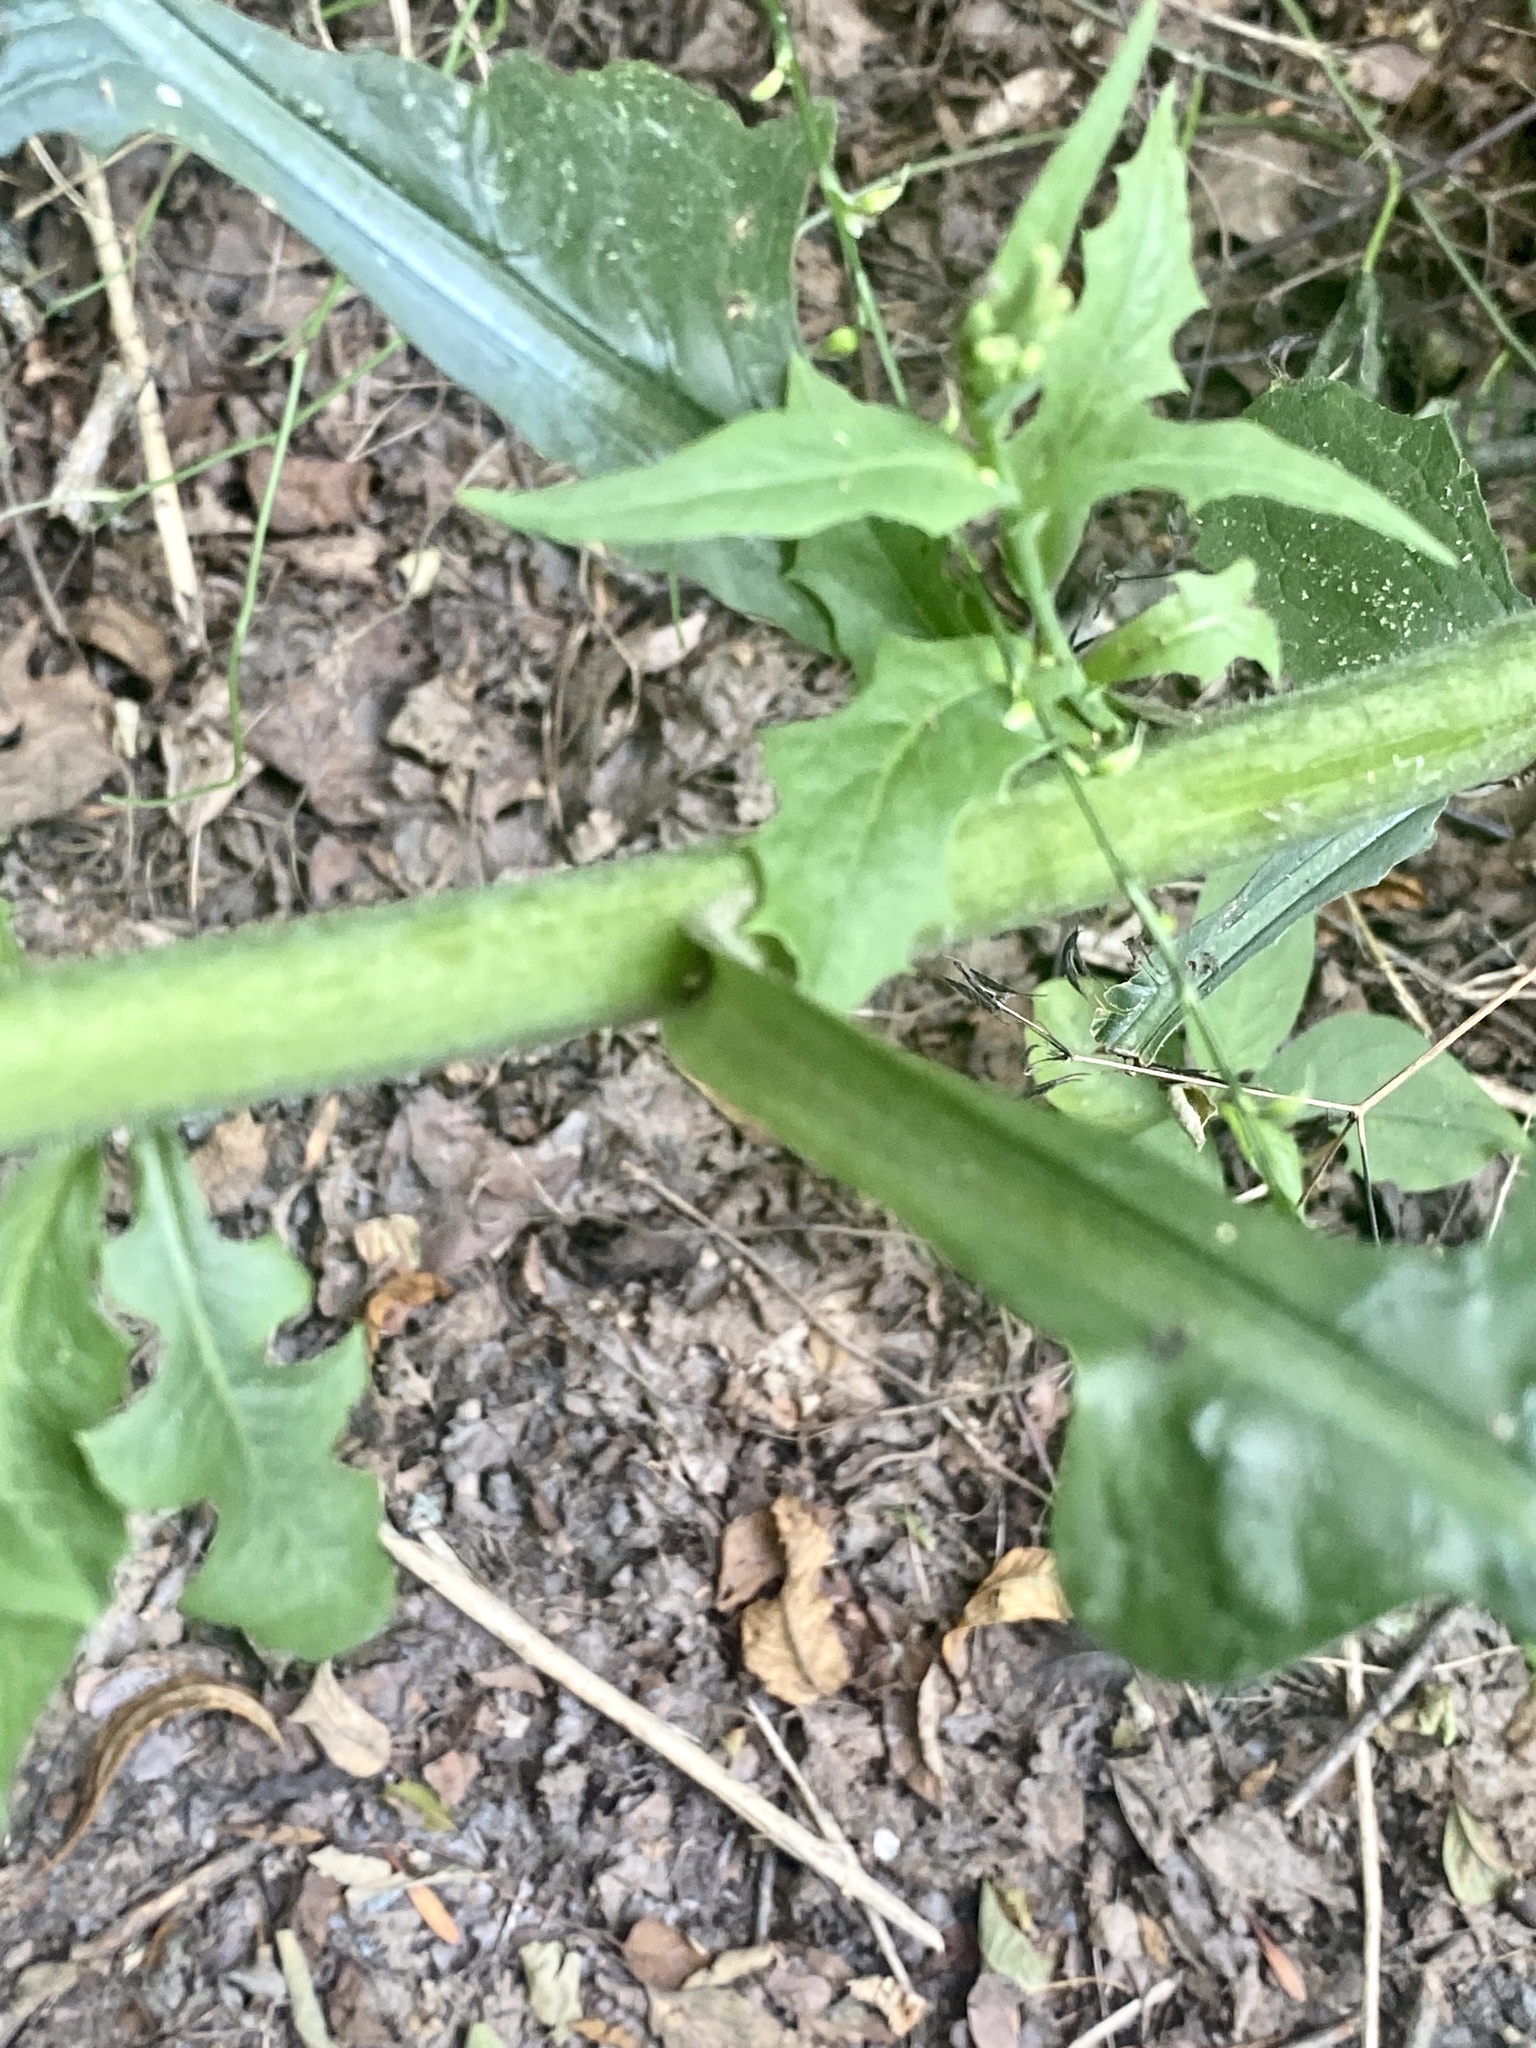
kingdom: Plantae
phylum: Tracheophyta
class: Magnoliopsida
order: Asterales
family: Asteraceae
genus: Lactuca
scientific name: Lactuca biennis
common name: Blue wood lettuce
